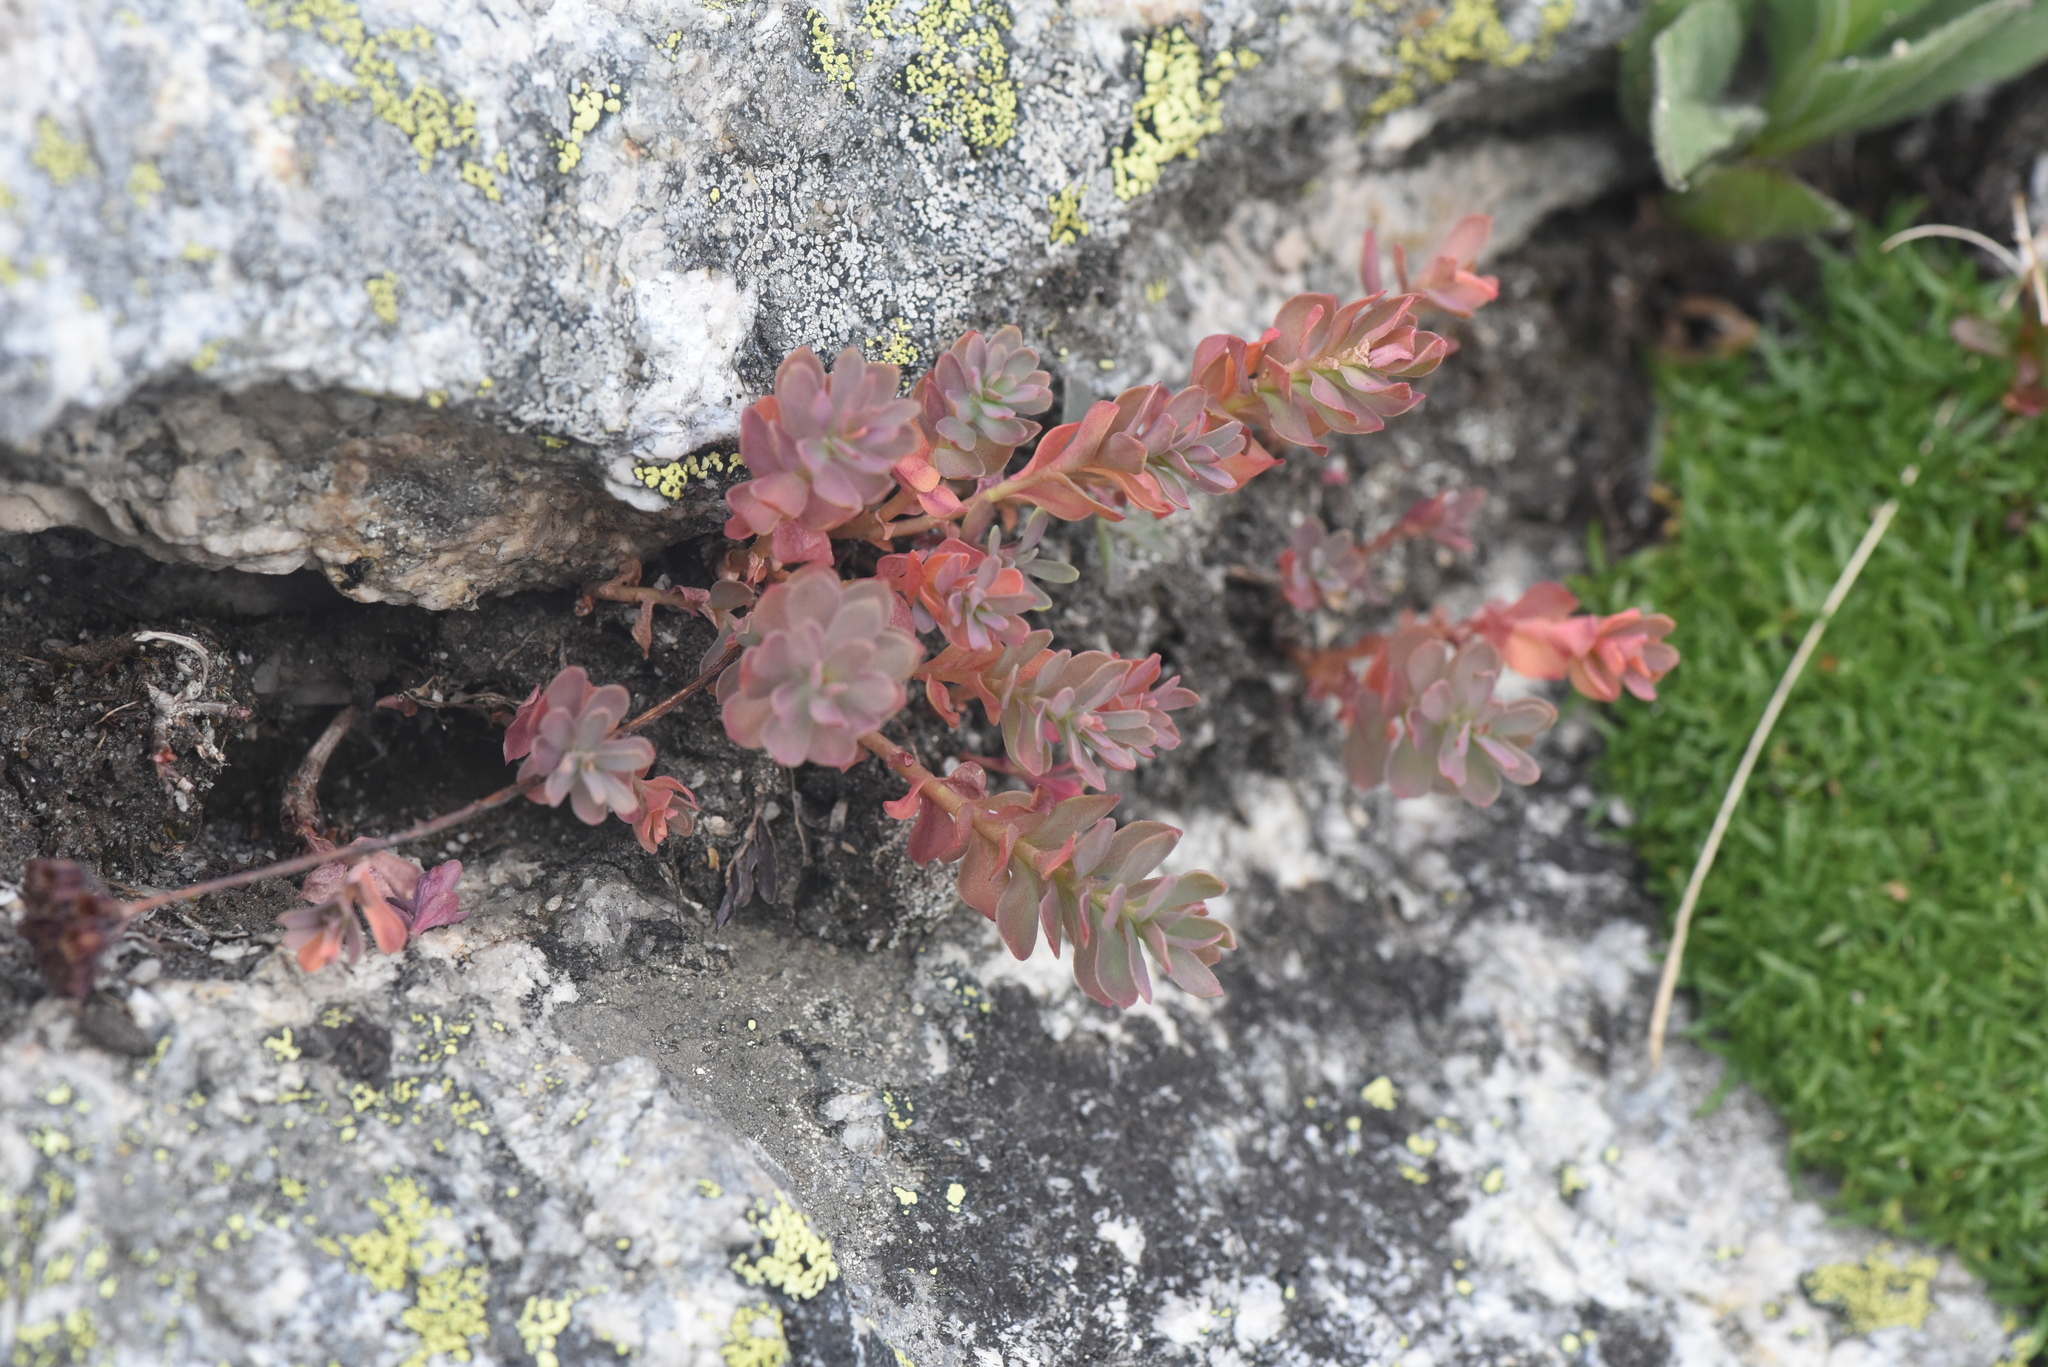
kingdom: Plantae
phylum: Tracheophyta
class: Magnoliopsida
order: Saxifragales
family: Crassulaceae
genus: Rhodiola
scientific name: Rhodiola integrifolia
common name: Western roseroot
